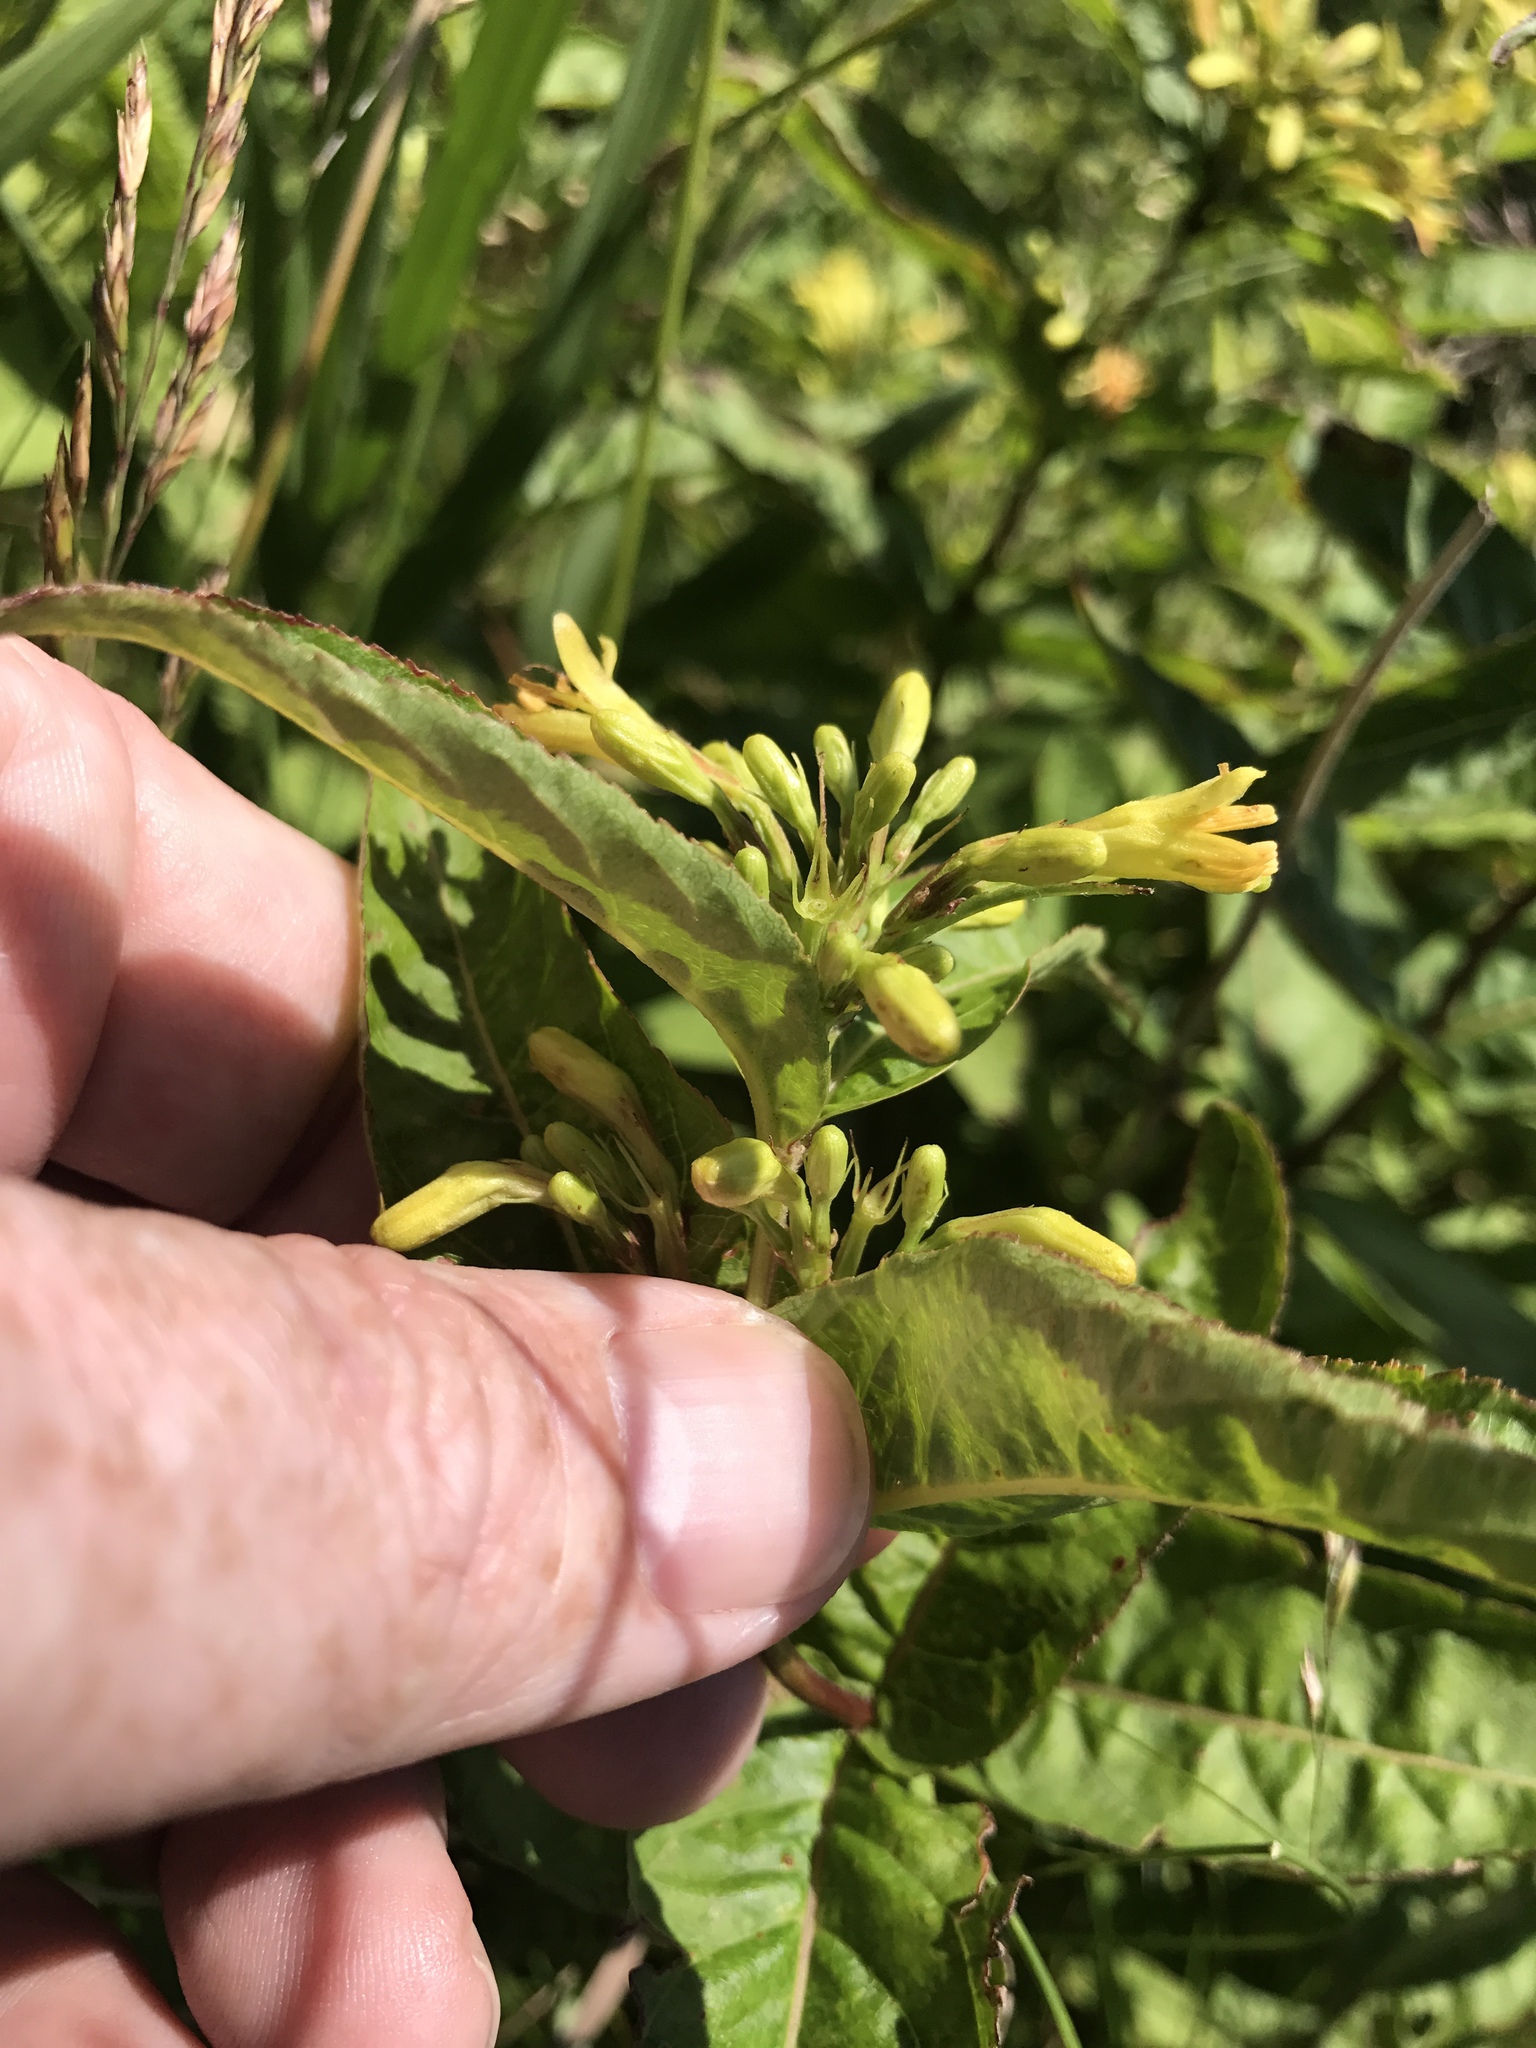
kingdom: Plantae
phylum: Tracheophyta
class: Magnoliopsida
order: Dipsacales
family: Caprifoliaceae
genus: Diervilla
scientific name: Diervilla sessilifolia
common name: Bush-honeysuckle
